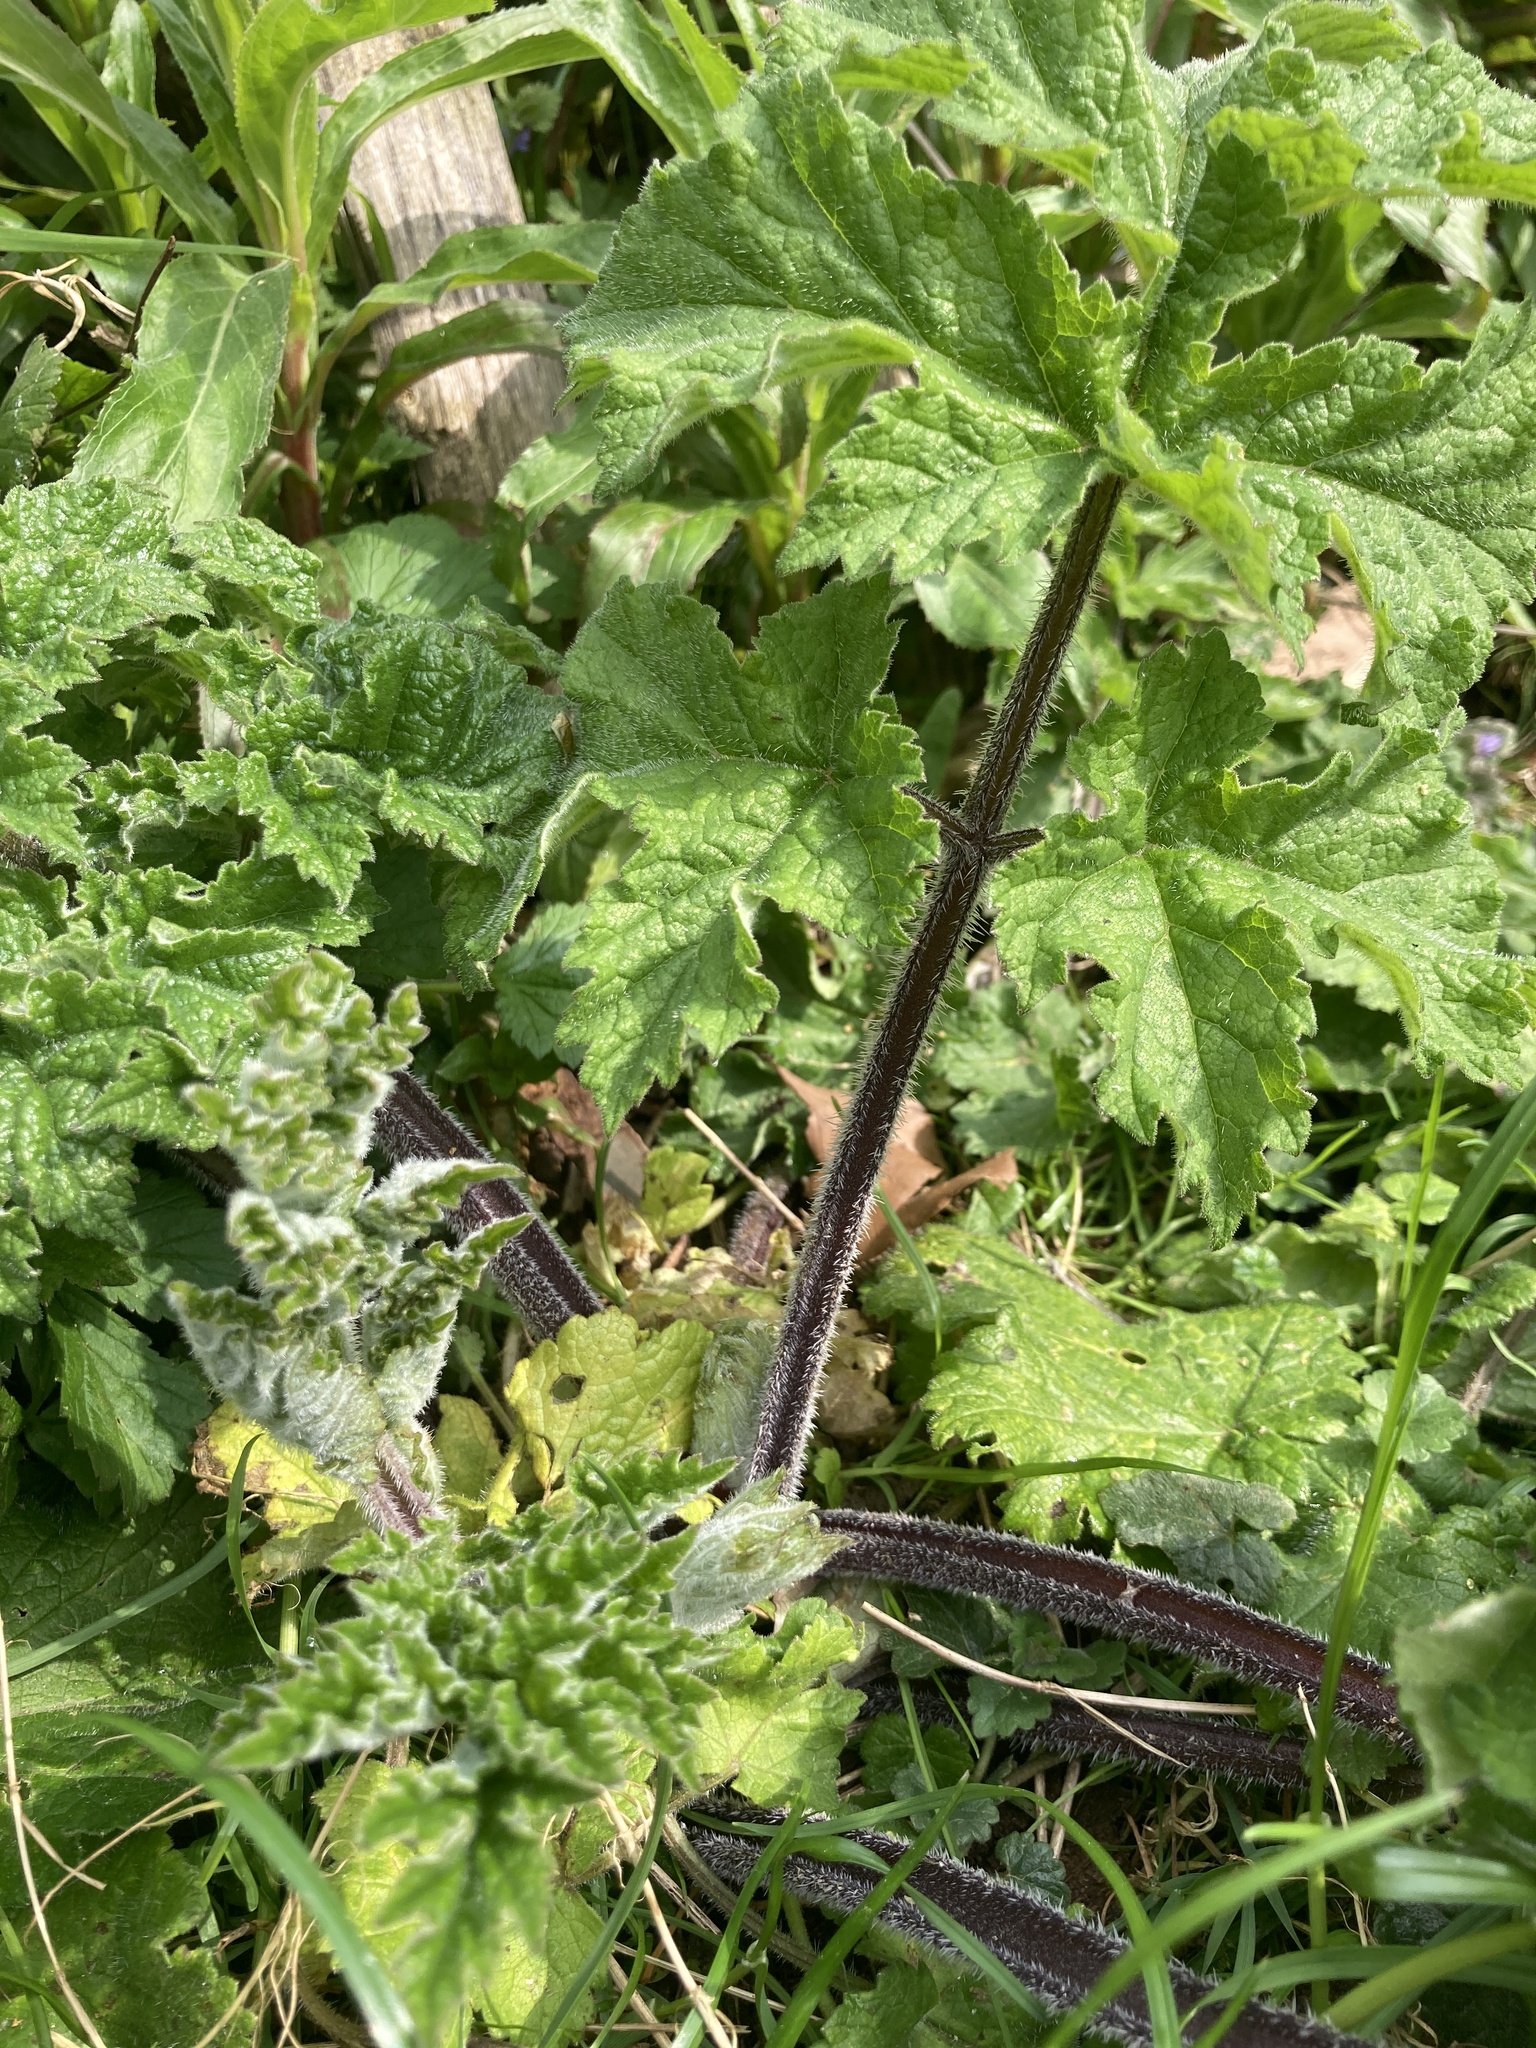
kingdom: Plantae
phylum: Tracheophyta
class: Magnoliopsida
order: Apiales
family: Apiaceae
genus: Heracleum
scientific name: Heracleum sphondylium
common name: Hogweed
